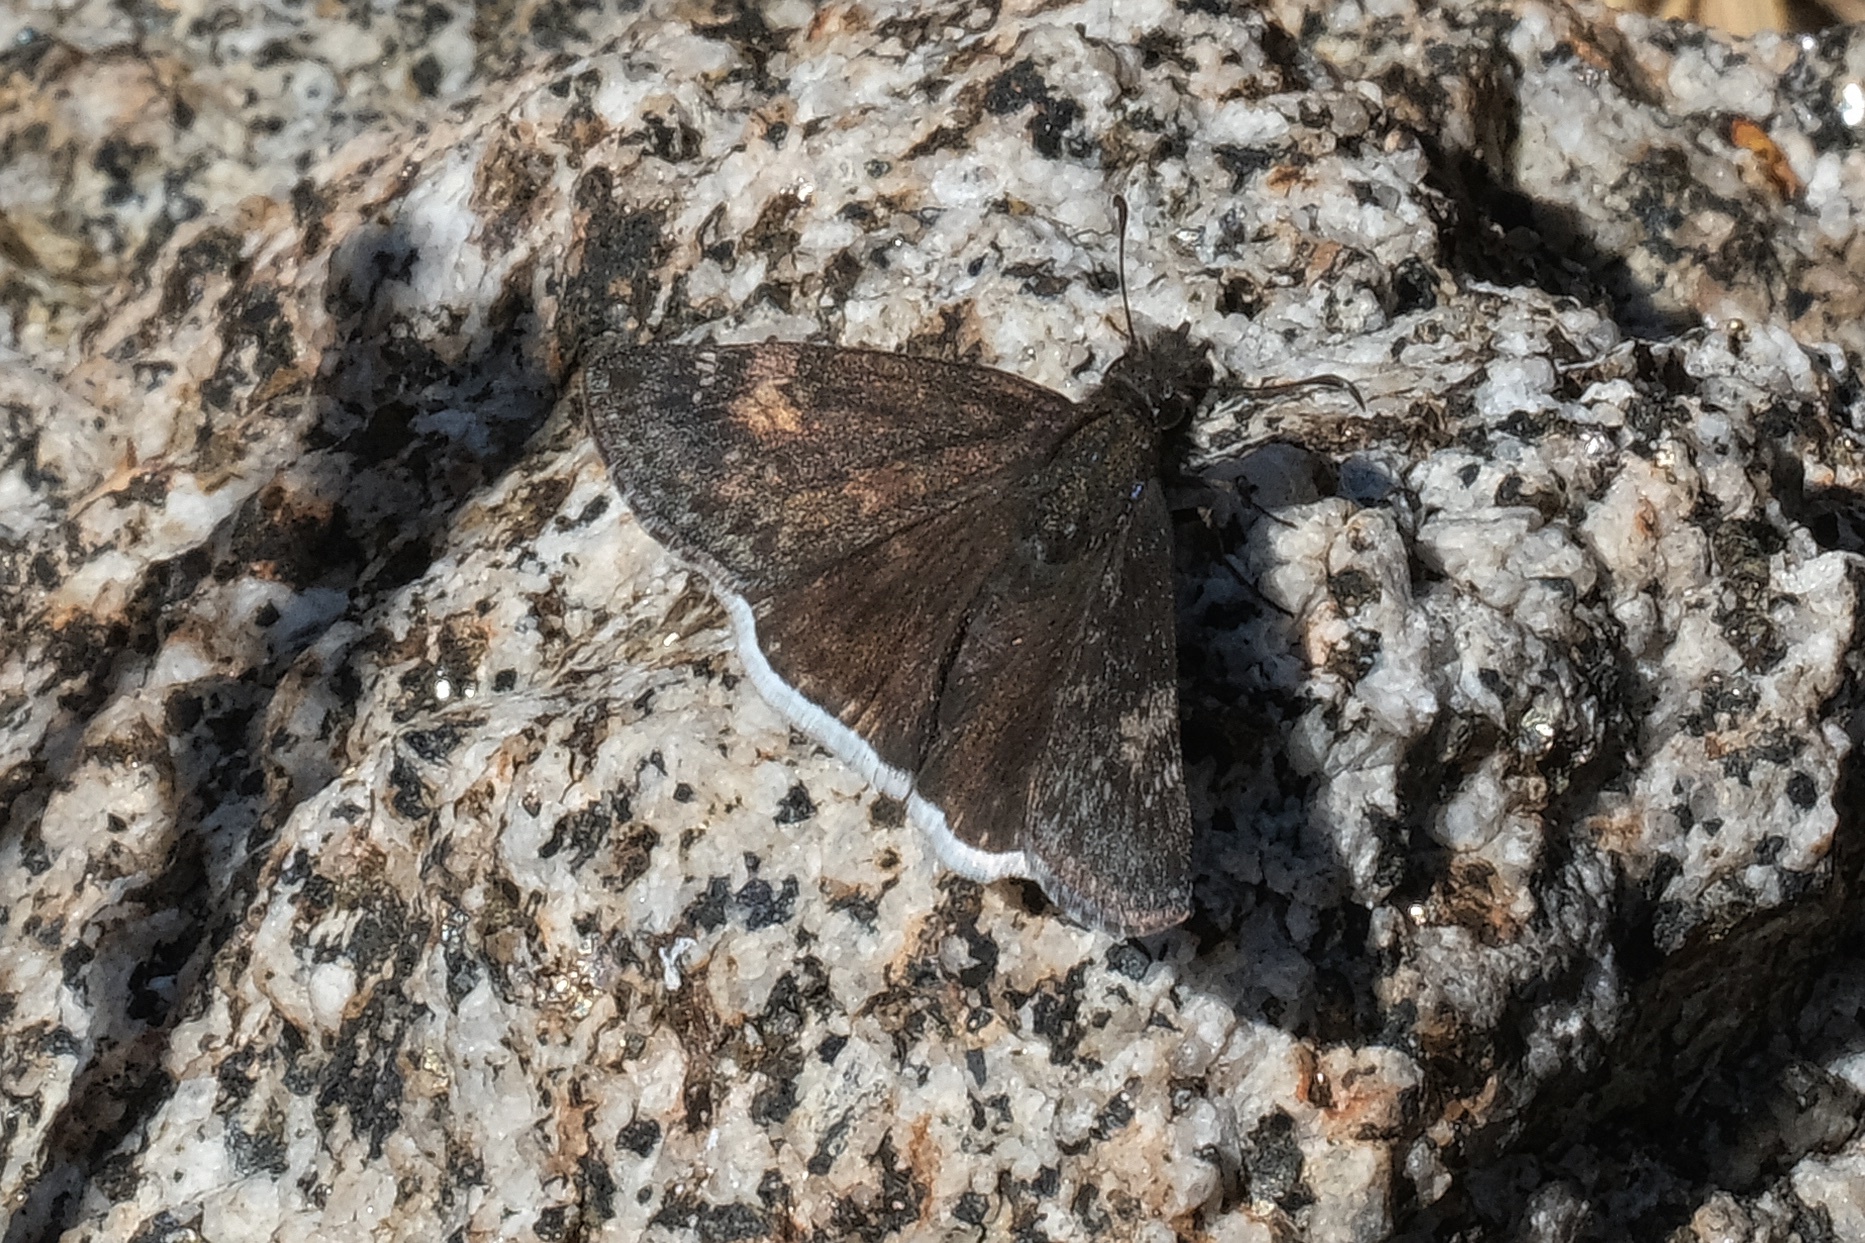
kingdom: Animalia
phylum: Arthropoda
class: Insecta
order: Lepidoptera
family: Hesperiidae
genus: Erynnis
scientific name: Erynnis funeralis
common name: Funereal duskywing
